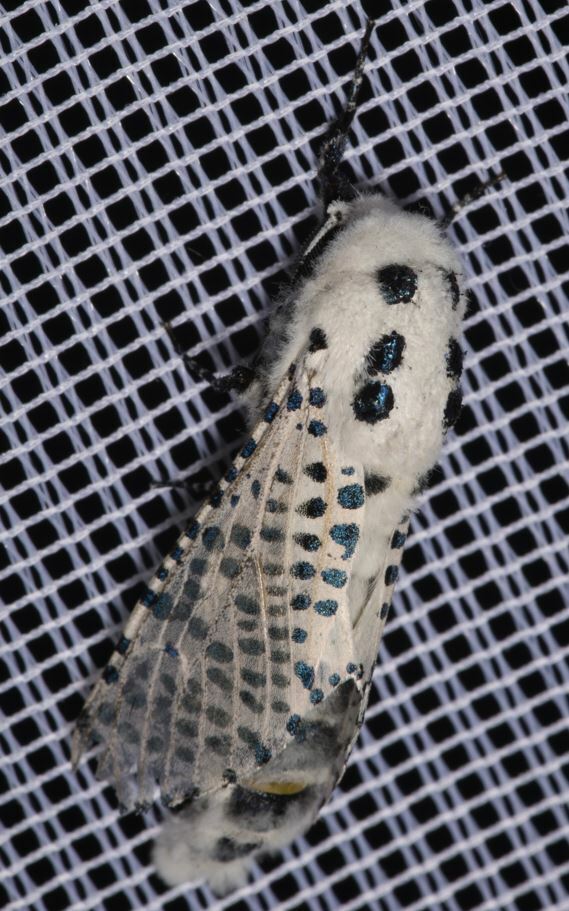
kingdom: Animalia
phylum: Arthropoda
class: Insecta
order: Lepidoptera
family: Cossidae
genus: Zeuzera
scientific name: Zeuzera pyrina
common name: Leopard moth
